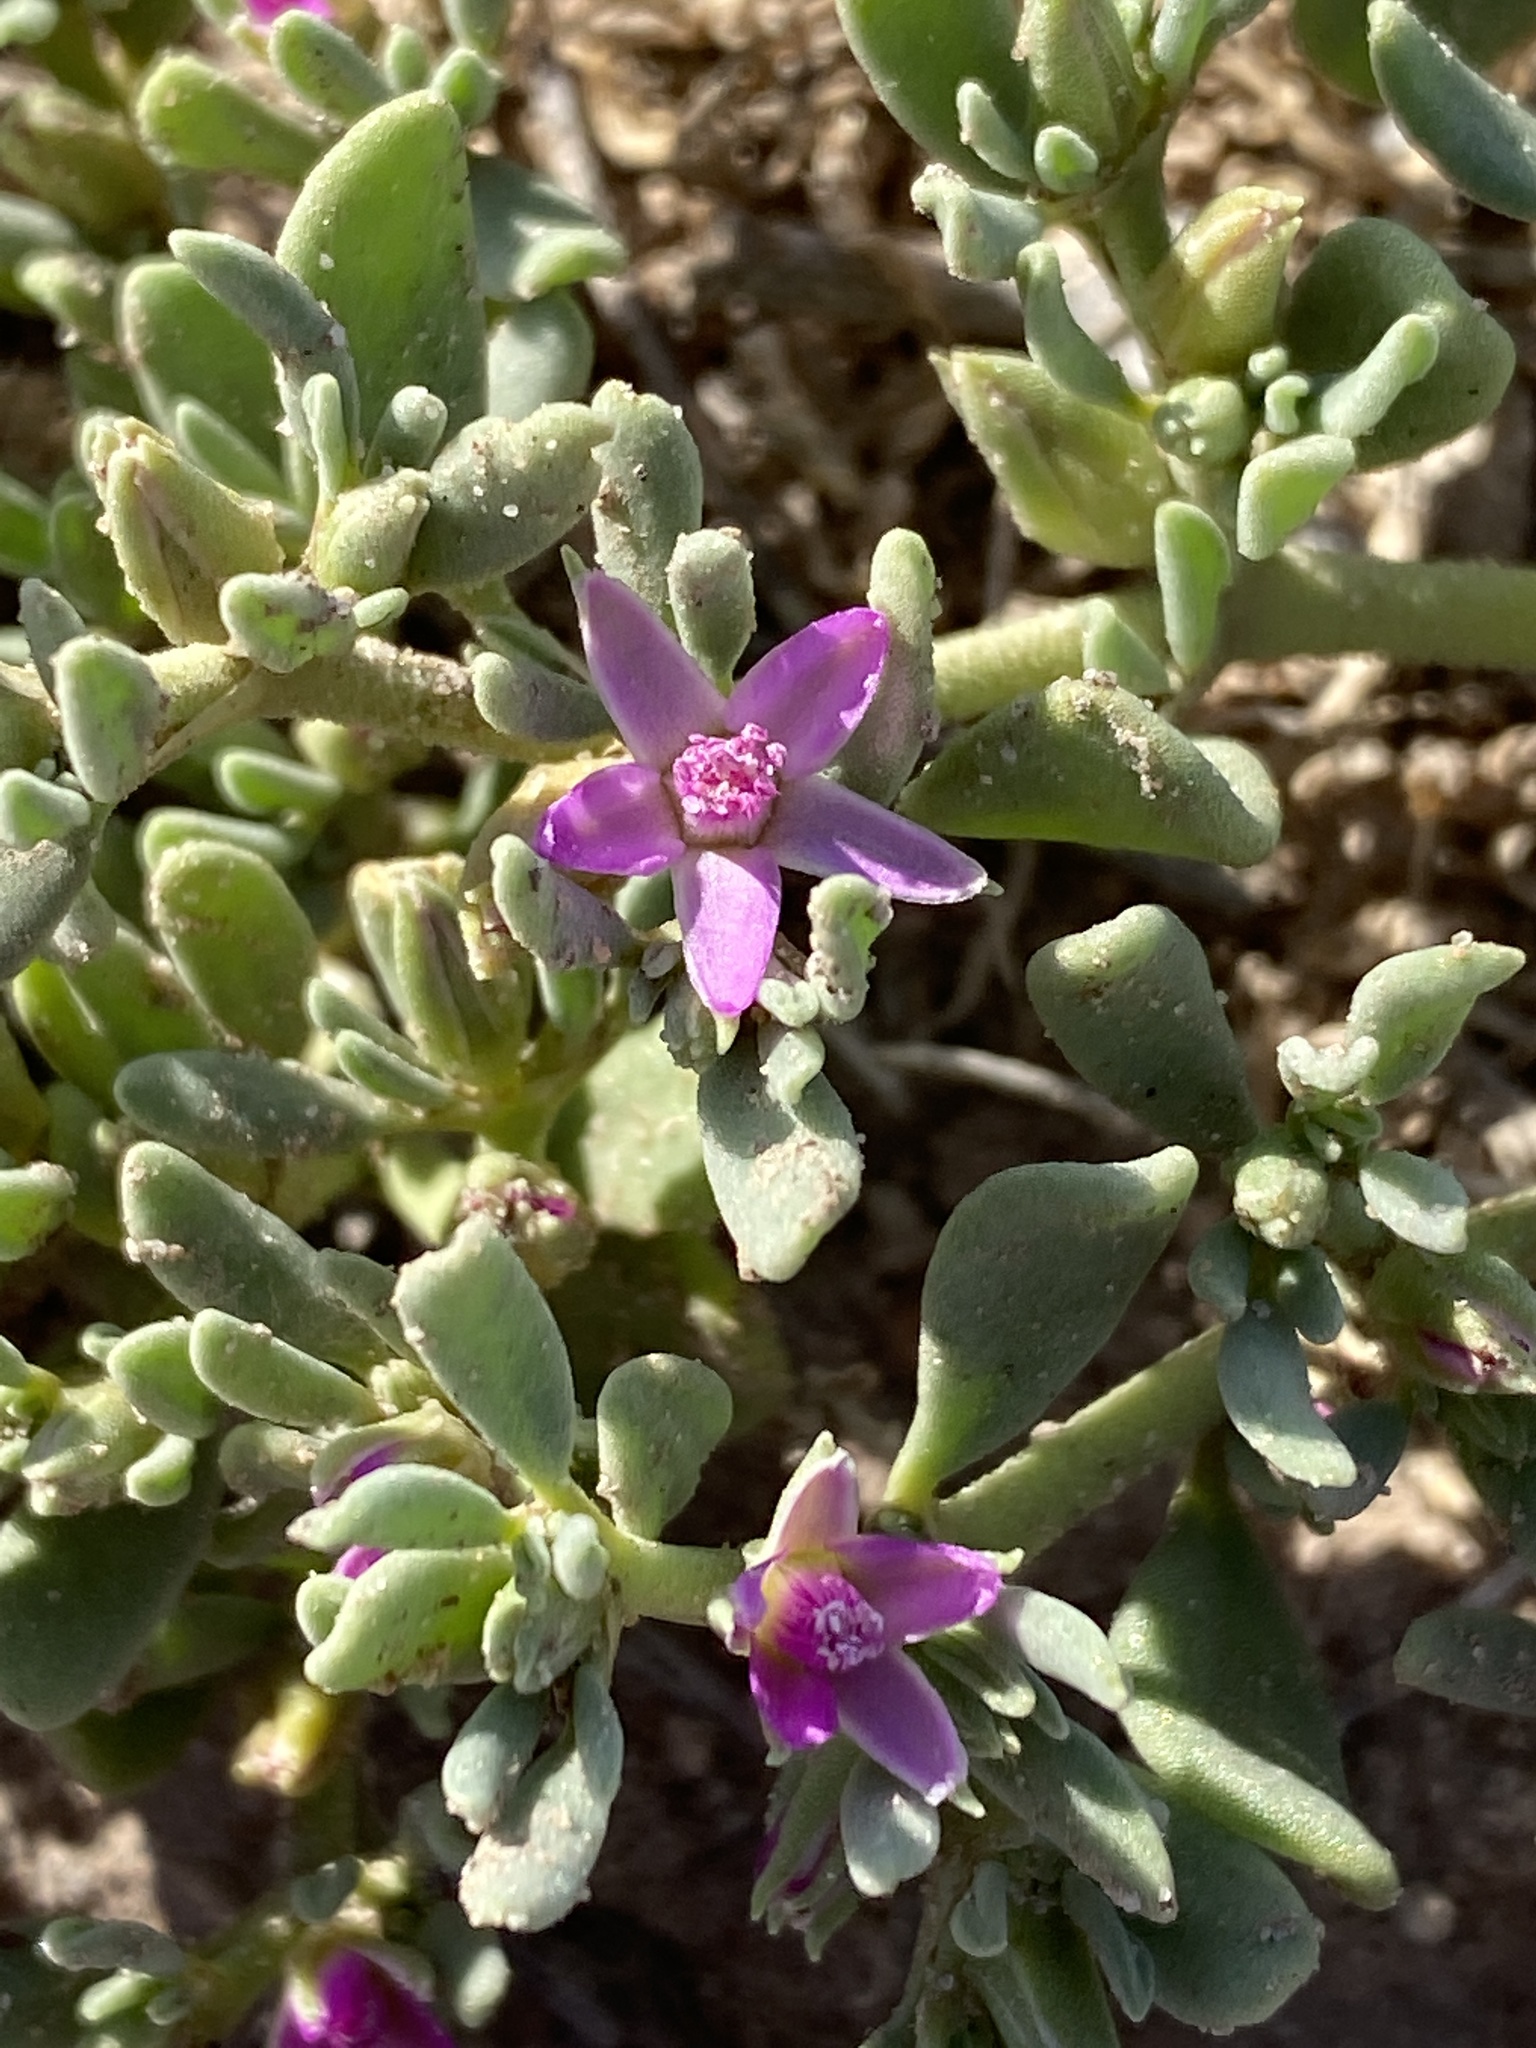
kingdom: Plantae
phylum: Tracheophyta
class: Magnoliopsida
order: Caryophyllales
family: Aizoaceae
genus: Sesuvium
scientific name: Sesuvium revolutifolium
